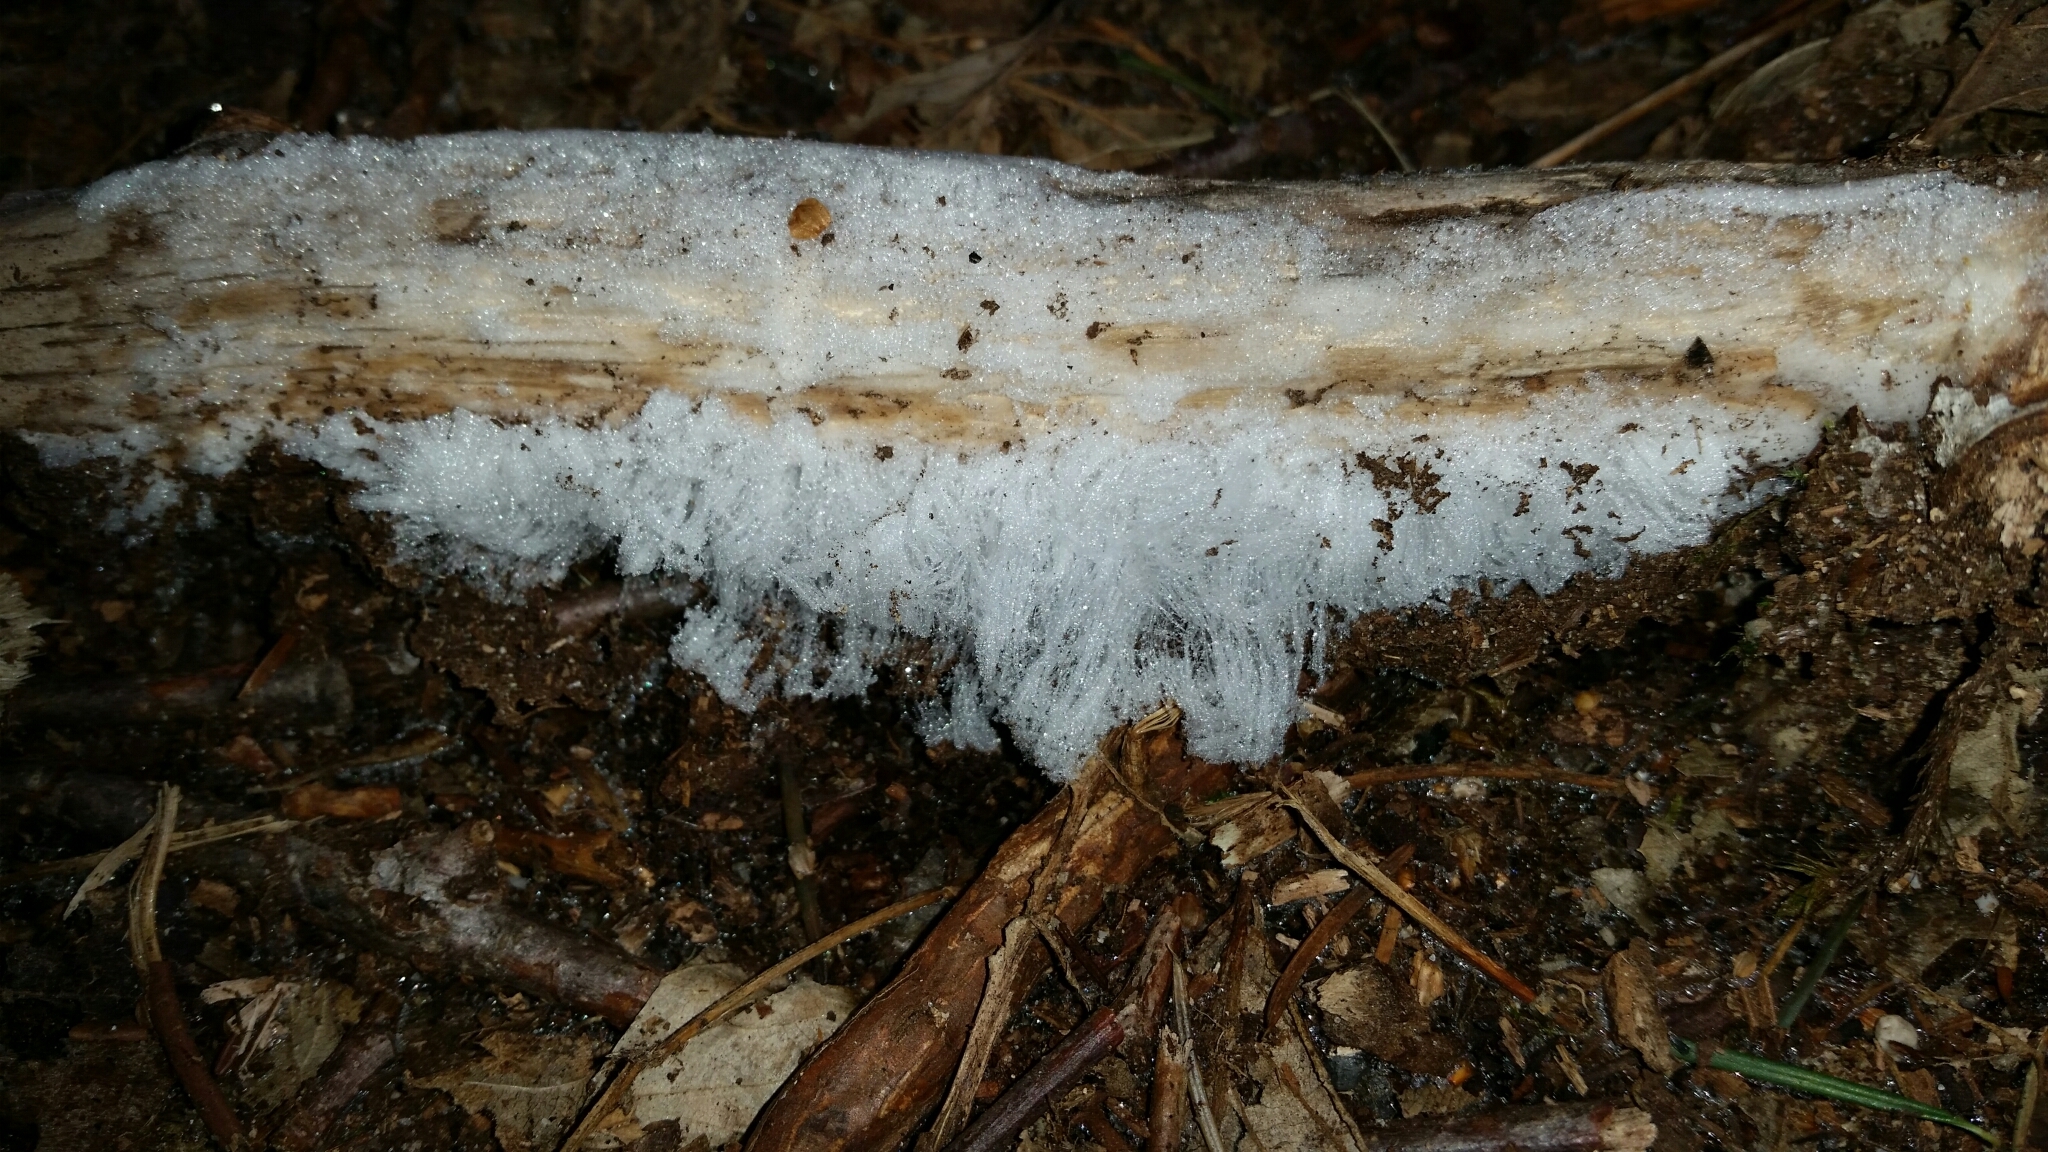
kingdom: Fungi
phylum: Basidiomycota
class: Agaricomycetes
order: Auriculariales
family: Auriculariaceae
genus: Exidiopsis
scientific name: Exidiopsis effusa
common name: Hair ice crust
